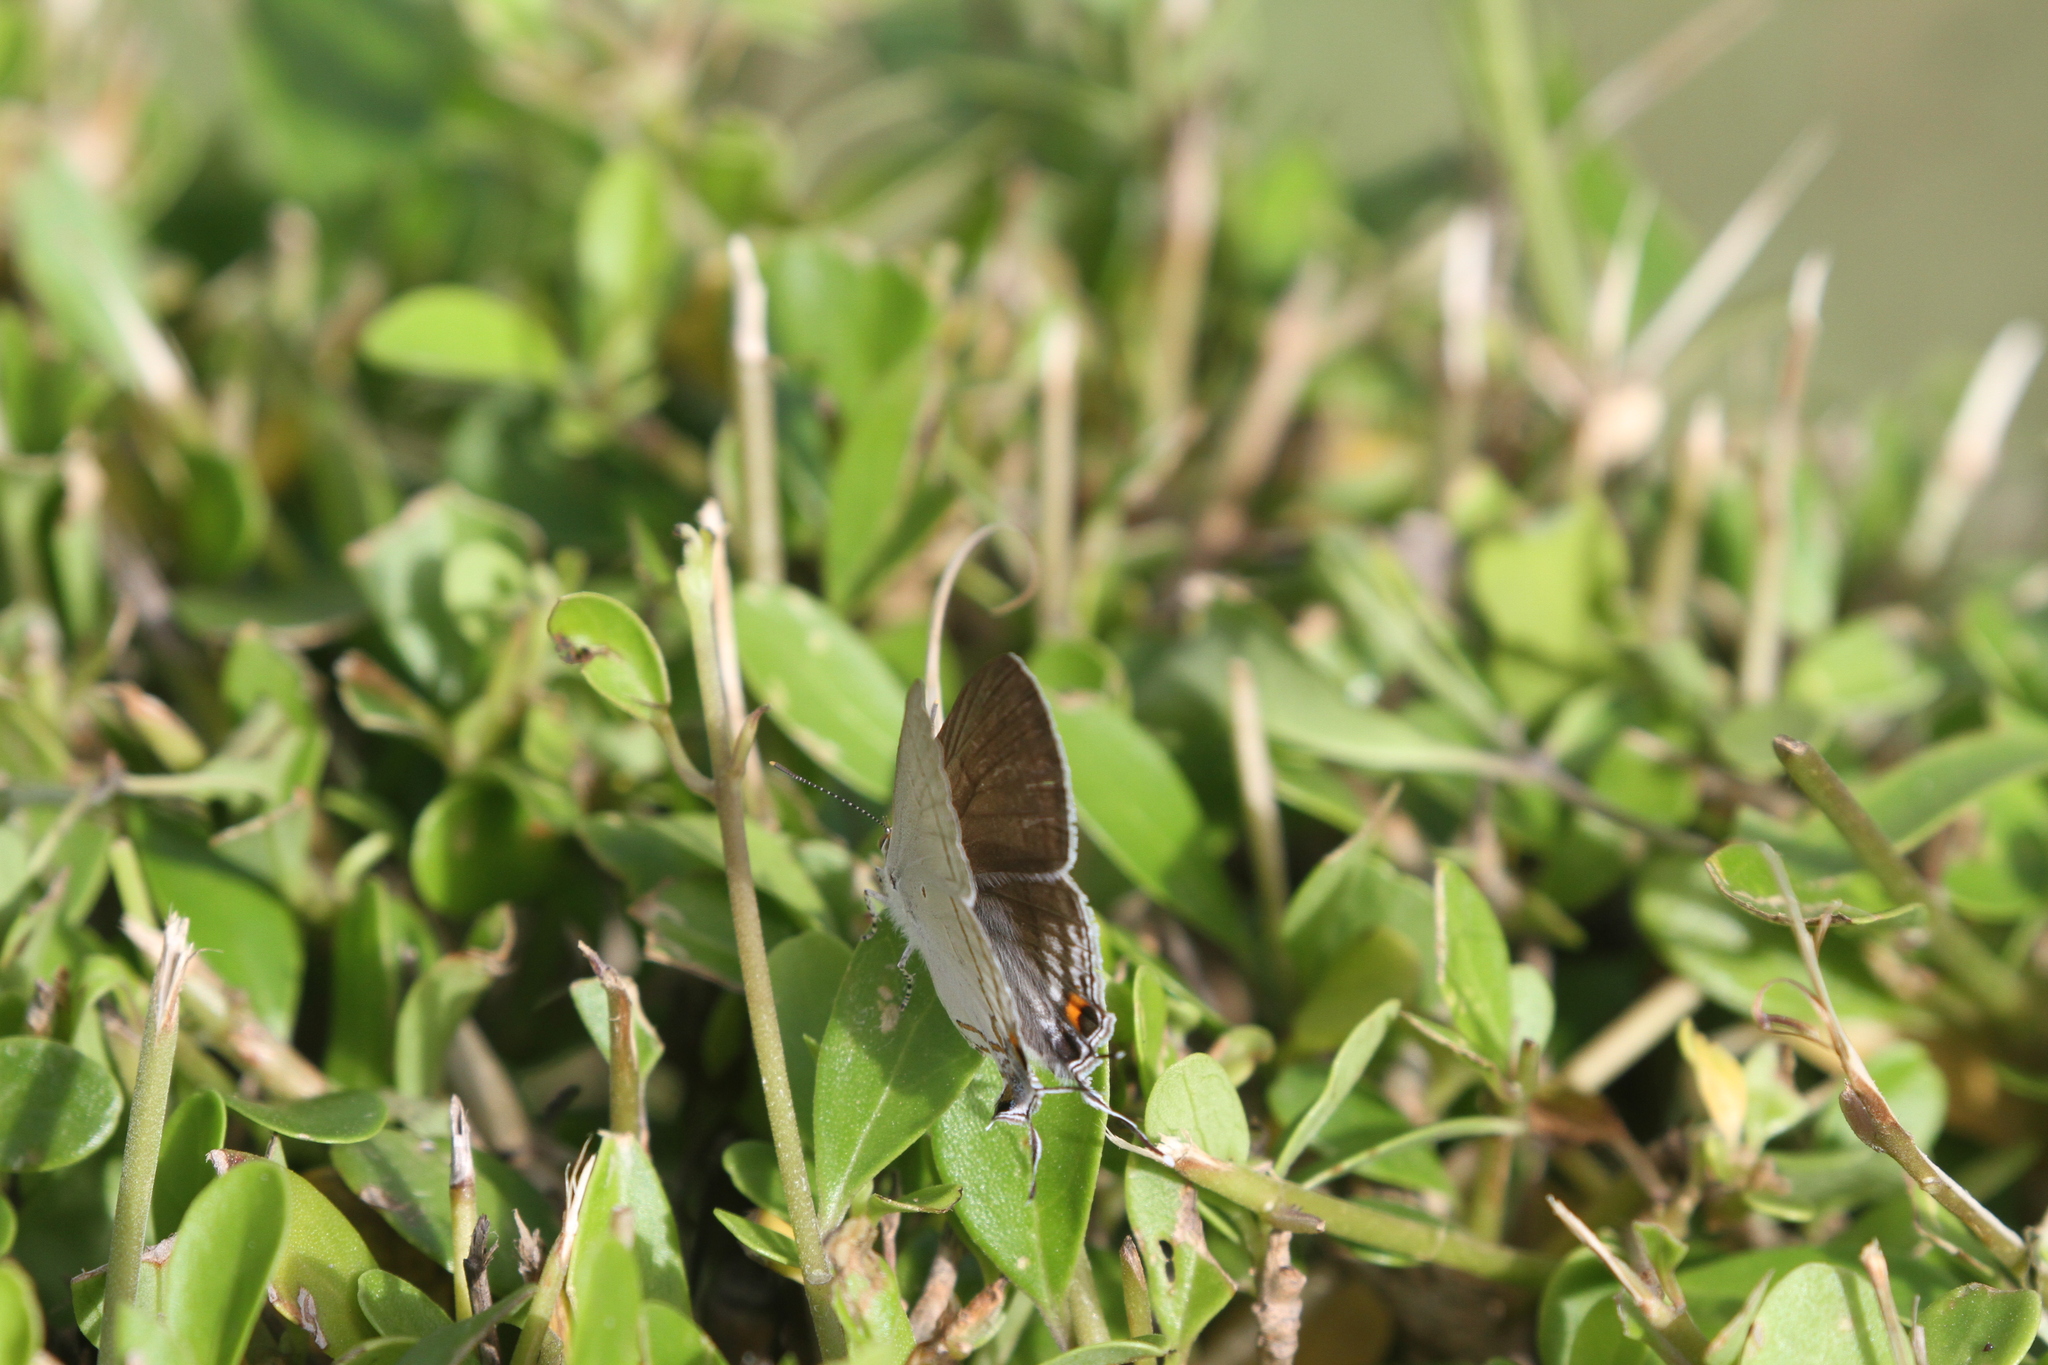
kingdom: Animalia
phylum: Arthropoda
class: Insecta
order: Lepidoptera
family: Lycaenidae
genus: Hypolycaena
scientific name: Hypolycaena philippus
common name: Common hairstreak
